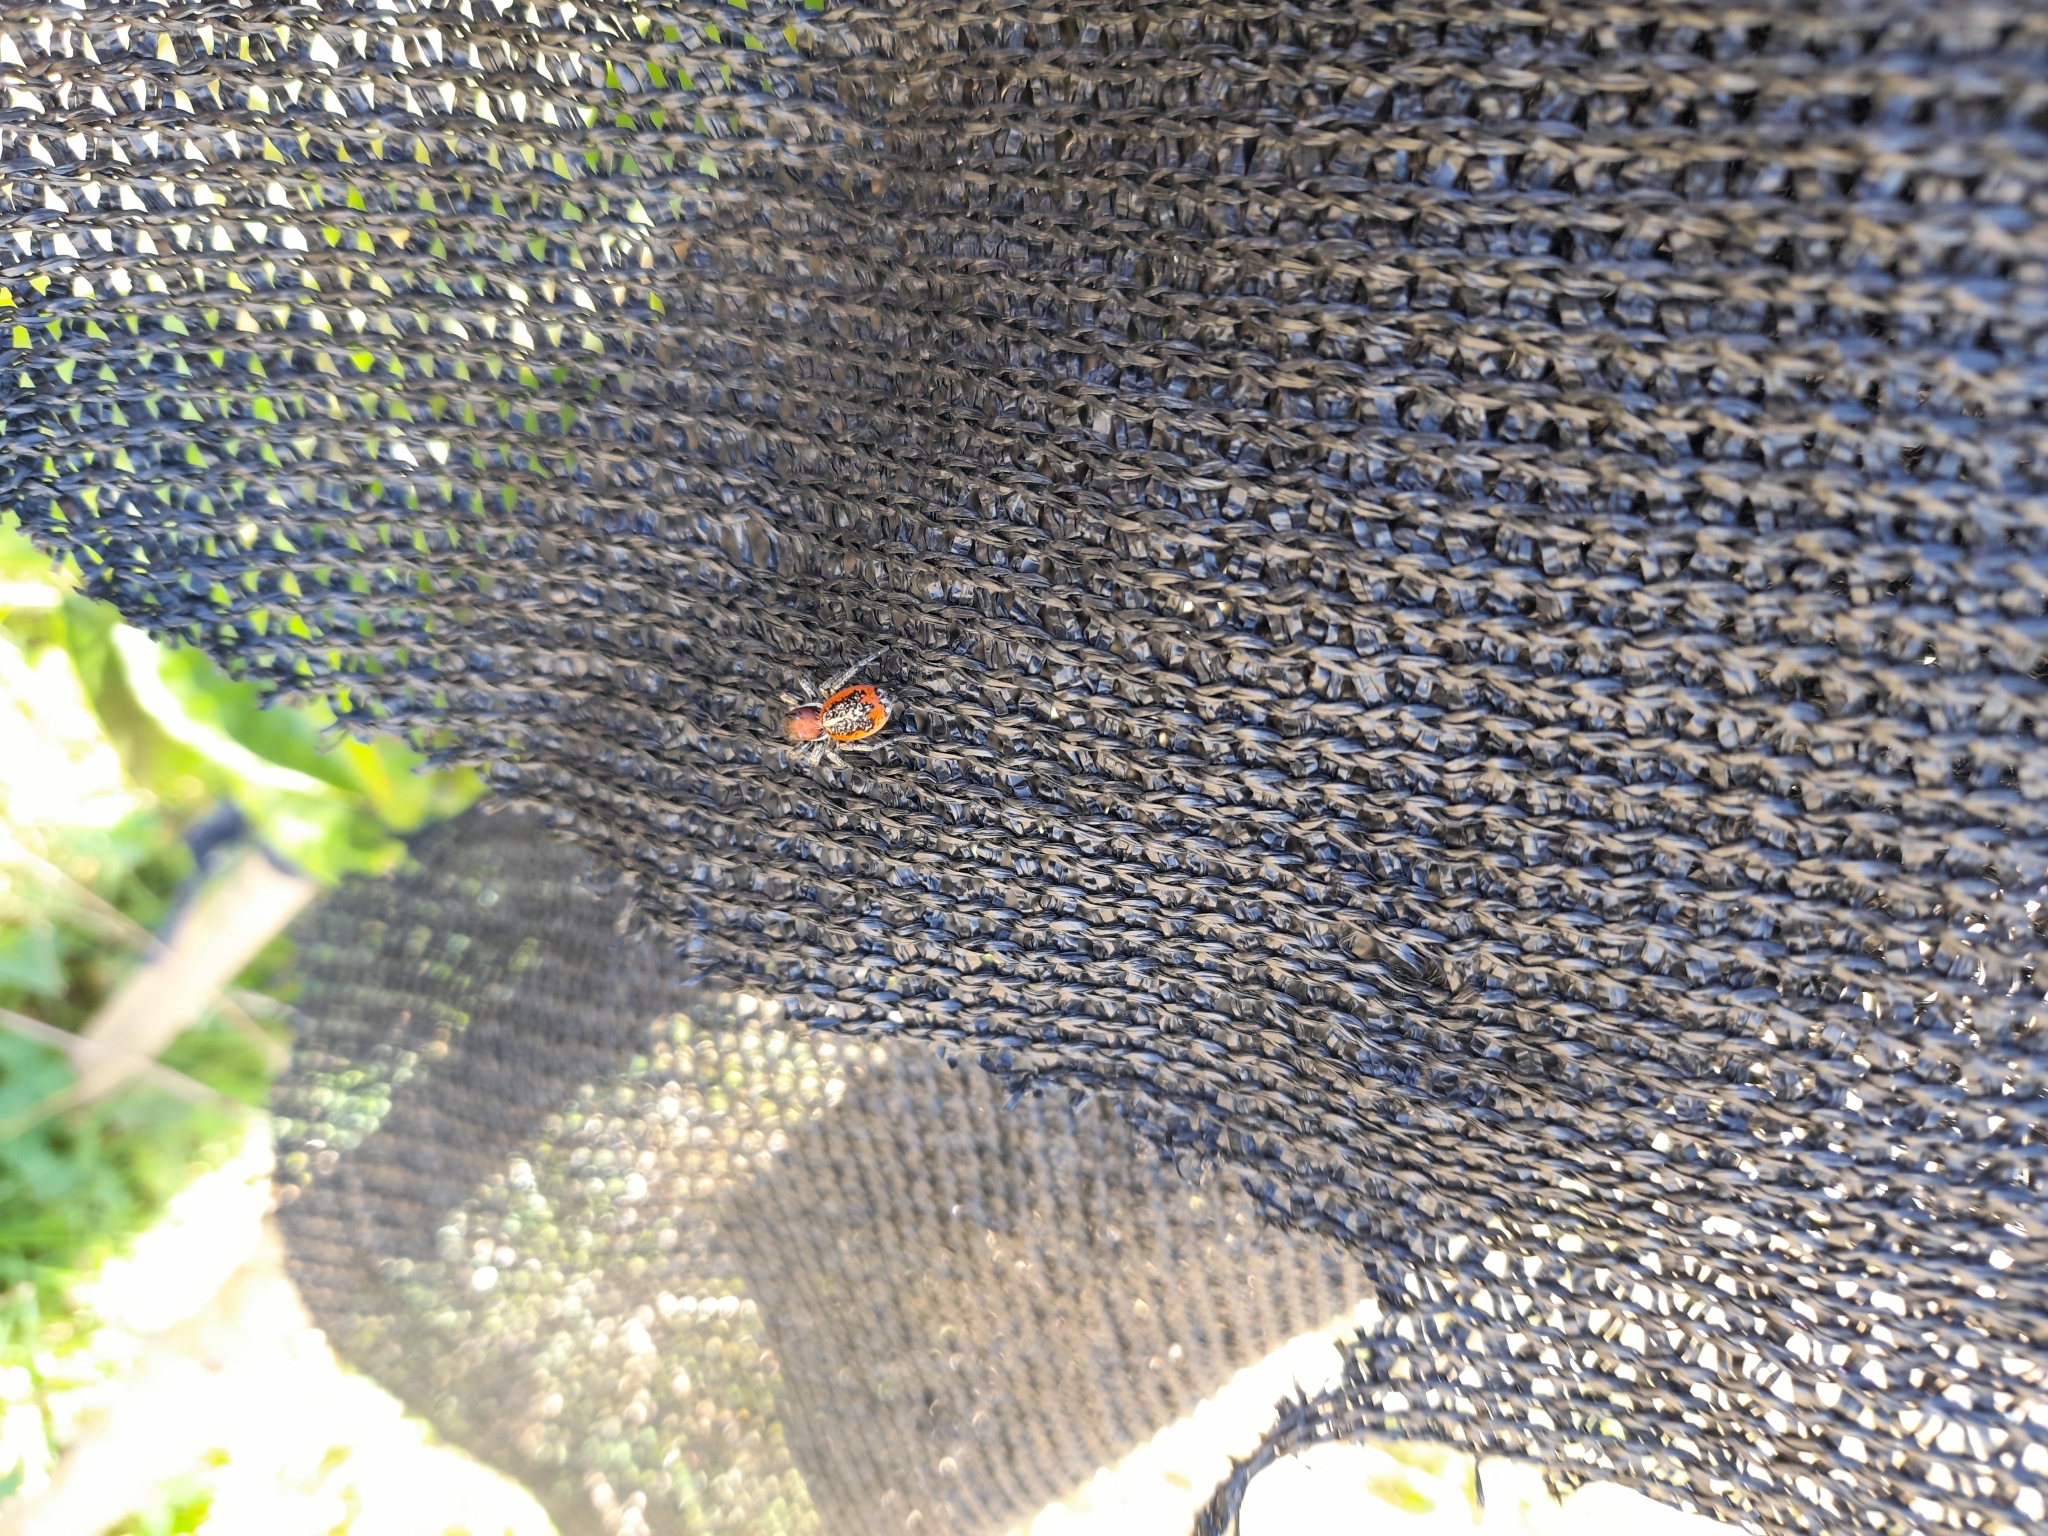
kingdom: Animalia
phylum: Arthropoda
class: Arachnida
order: Araneae
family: Salticidae
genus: Phiale
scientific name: Phiale roburifoliata
